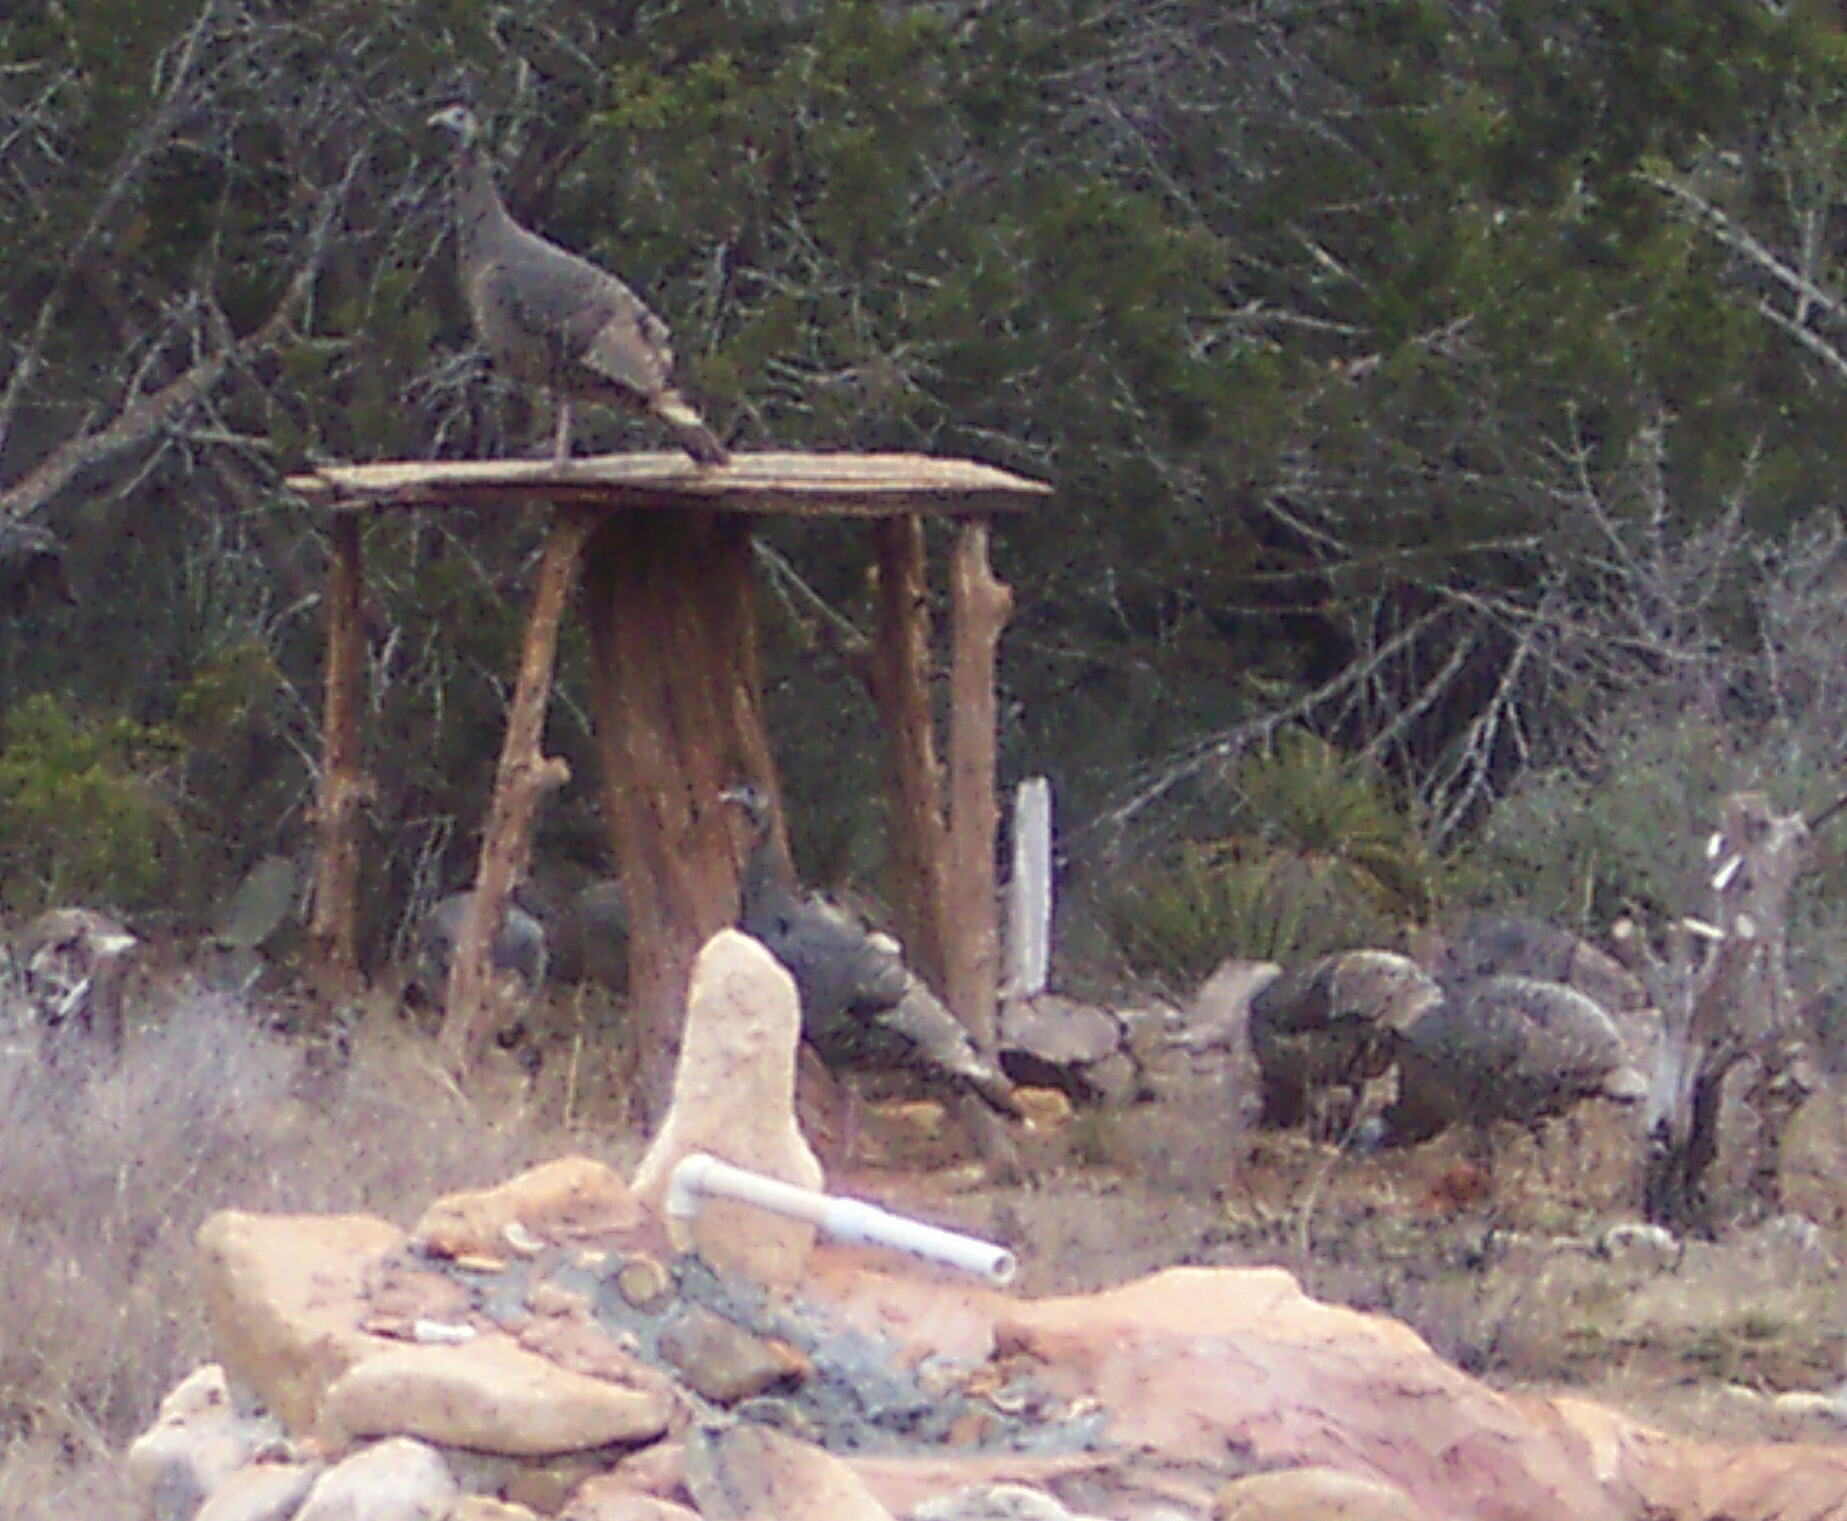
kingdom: Animalia
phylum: Chordata
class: Aves
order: Galliformes
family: Phasianidae
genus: Meleagris
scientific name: Meleagris gallopavo
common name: Wild turkey
